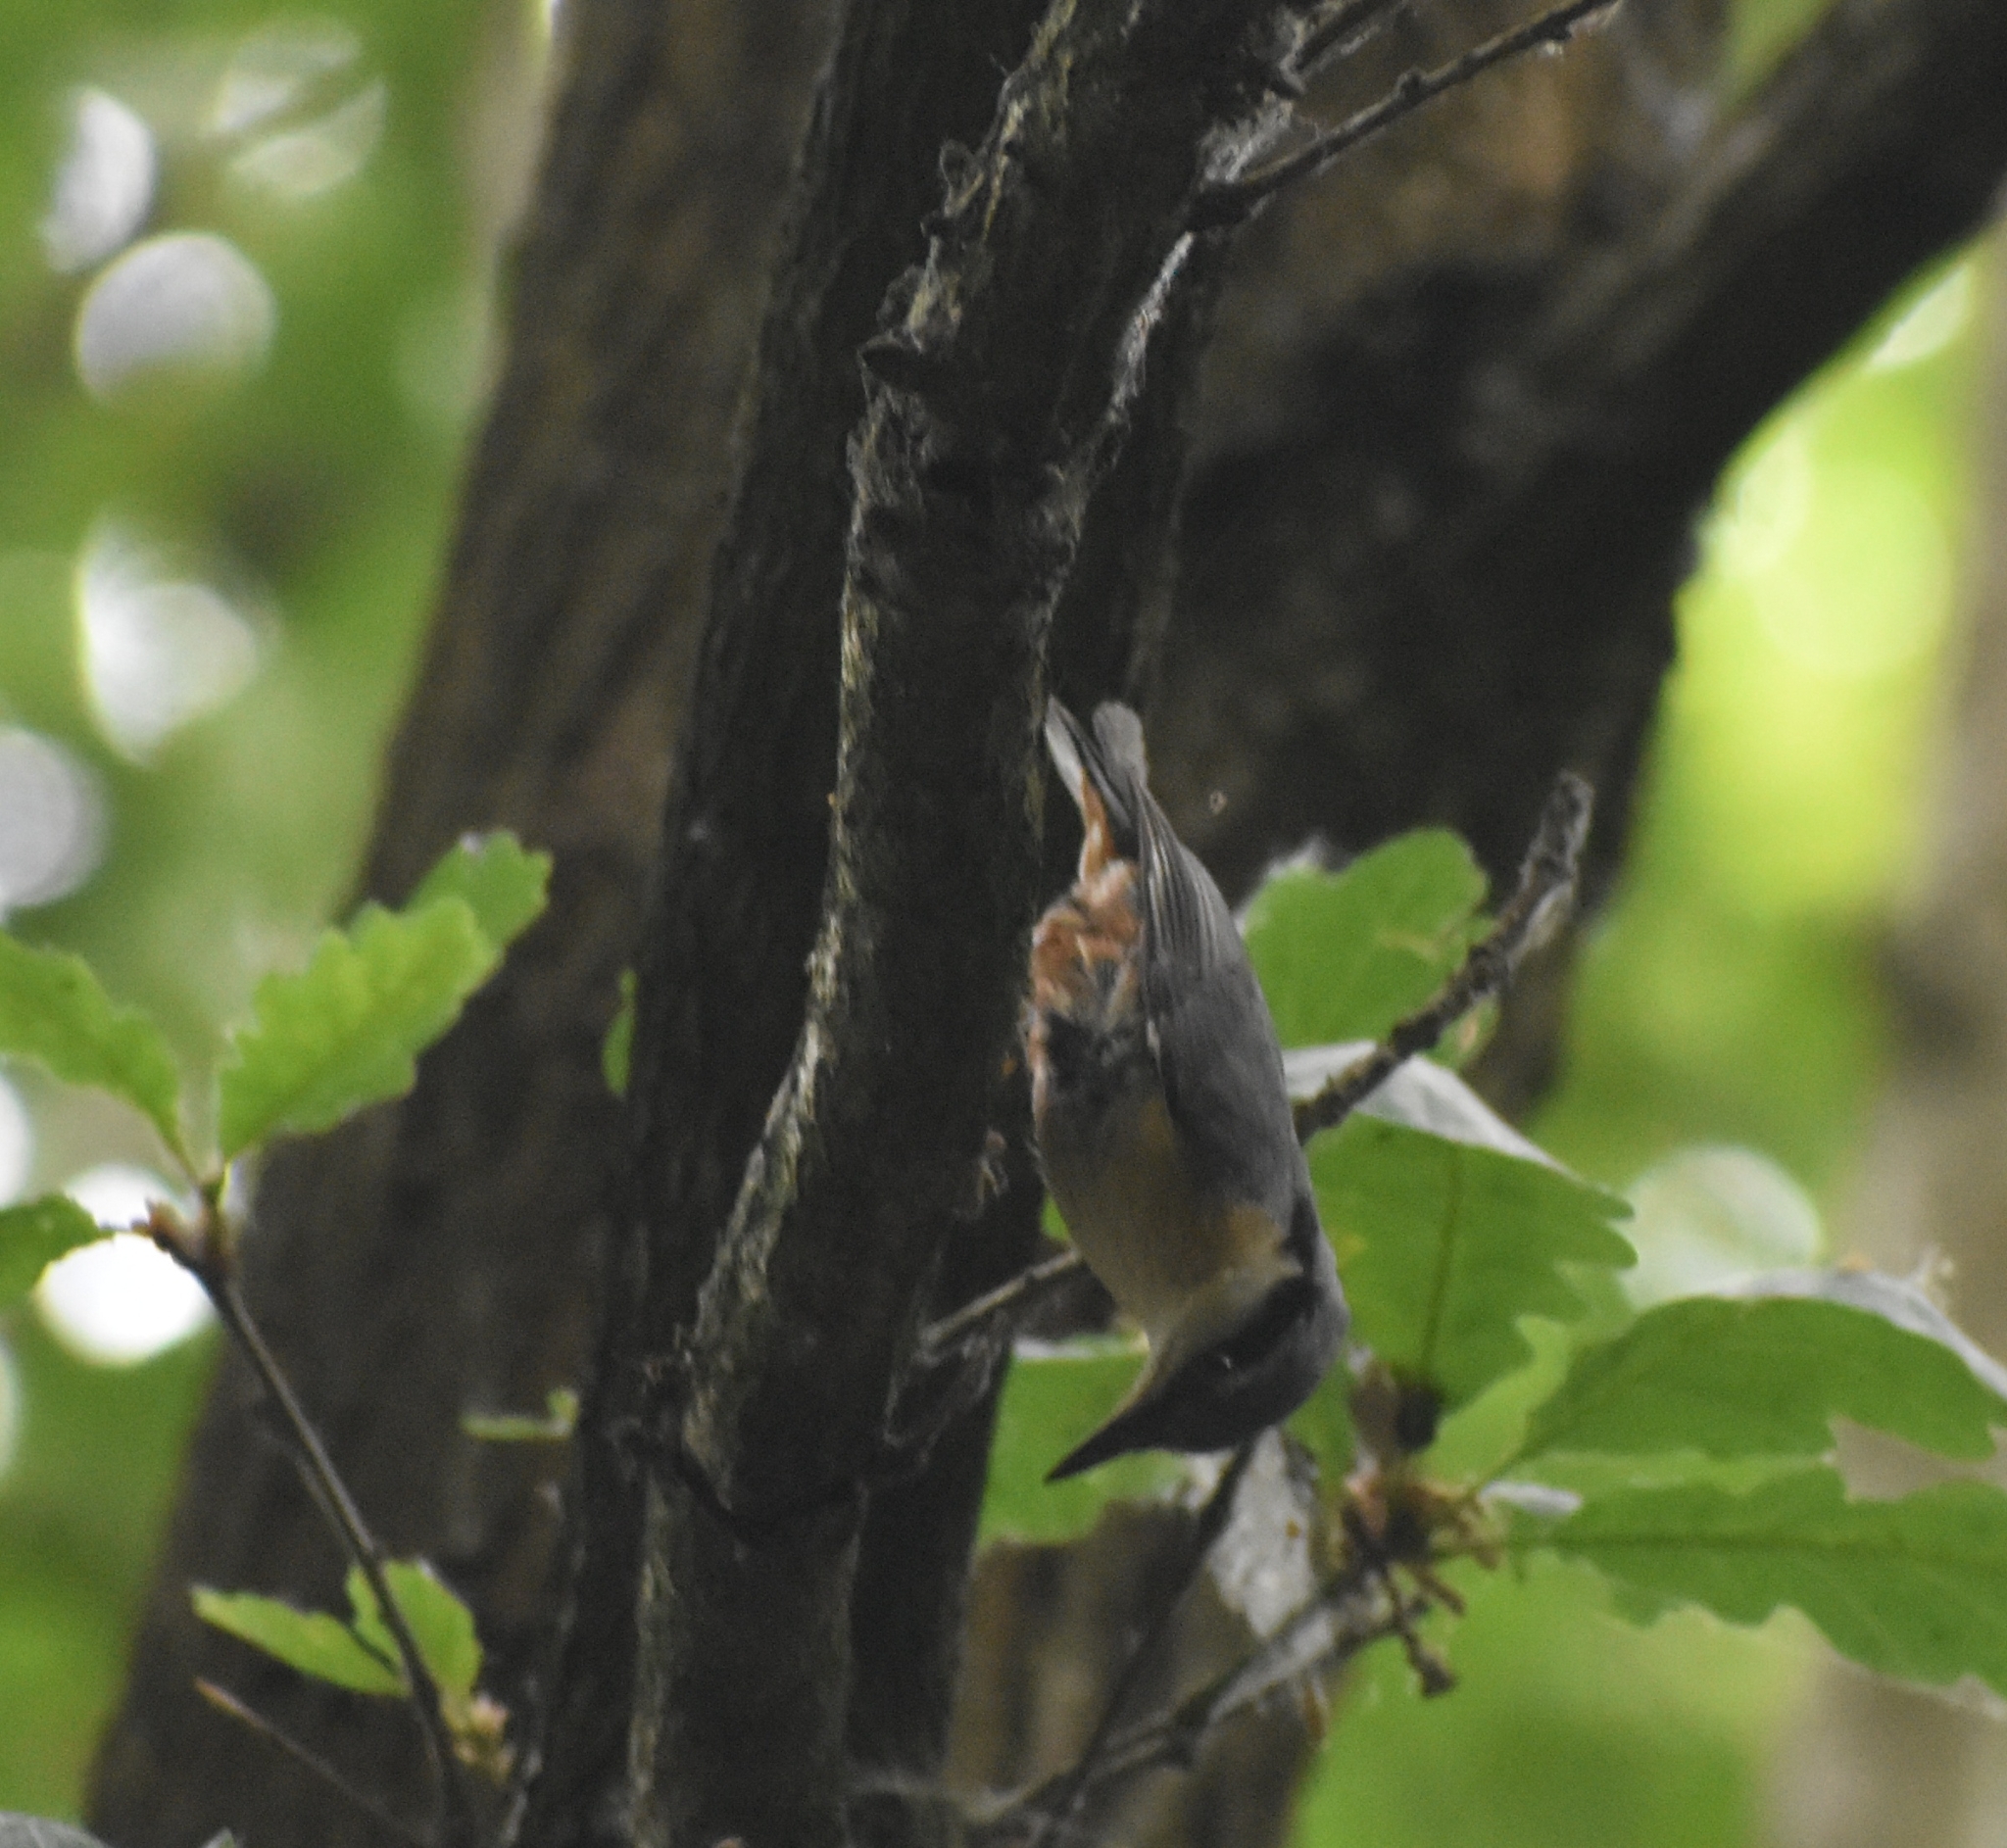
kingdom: Animalia
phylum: Chordata
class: Aves
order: Passeriformes
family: Sittidae
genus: Sitta
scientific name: Sitta europaea
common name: Eurasian nuthatch
